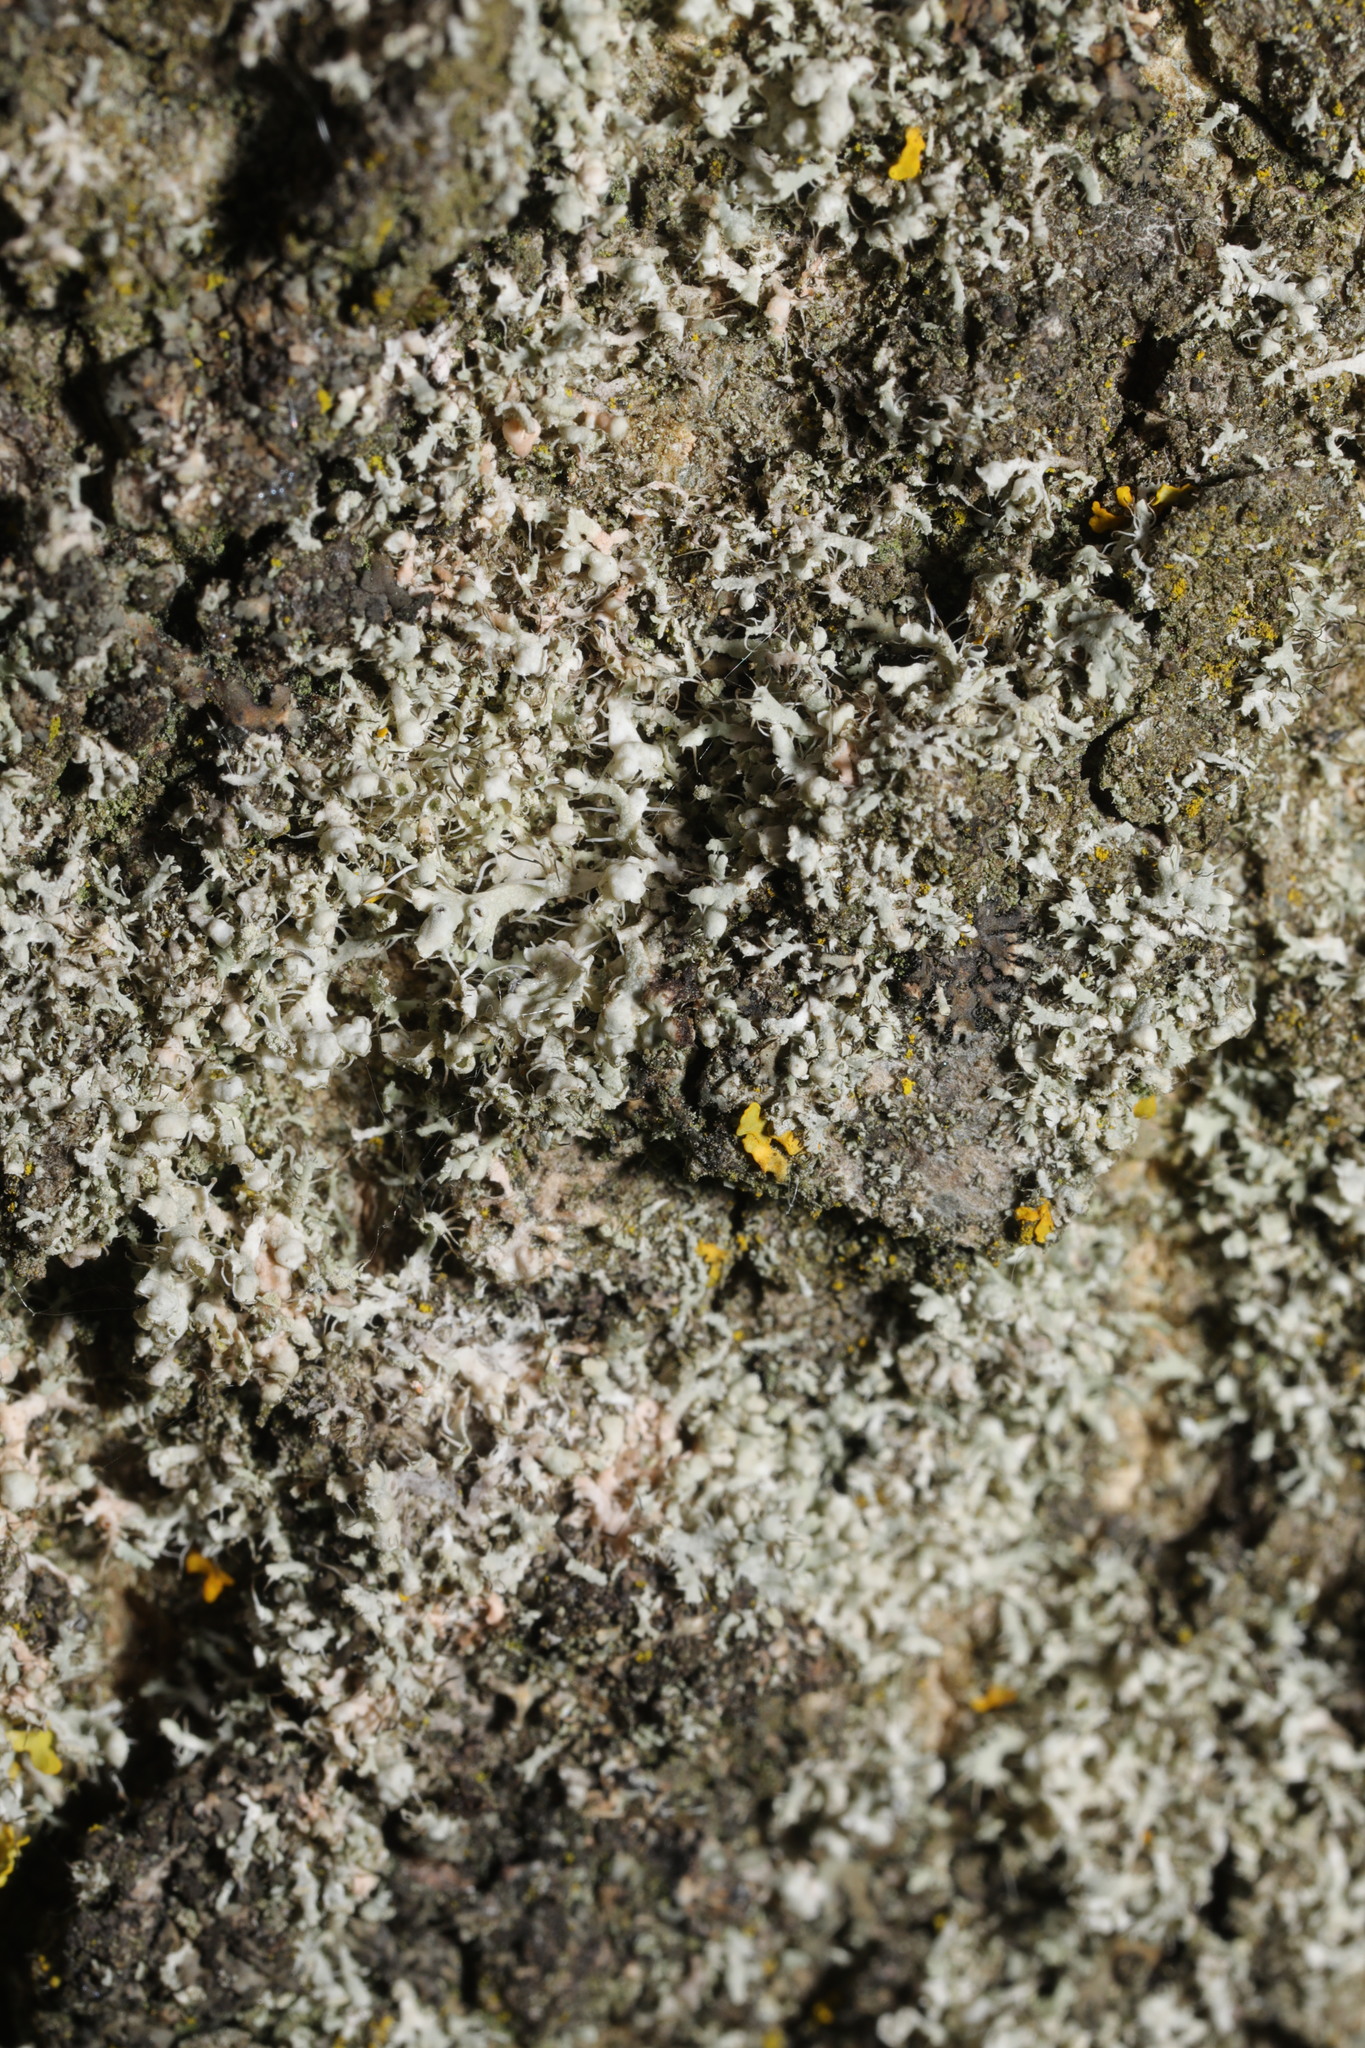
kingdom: Fungi
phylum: Ascomycota
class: Lecanoromycetes
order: Caliciales
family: Physciaceae
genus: Physcia
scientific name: Physcia adscendens
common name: Hooded rosette lichen
